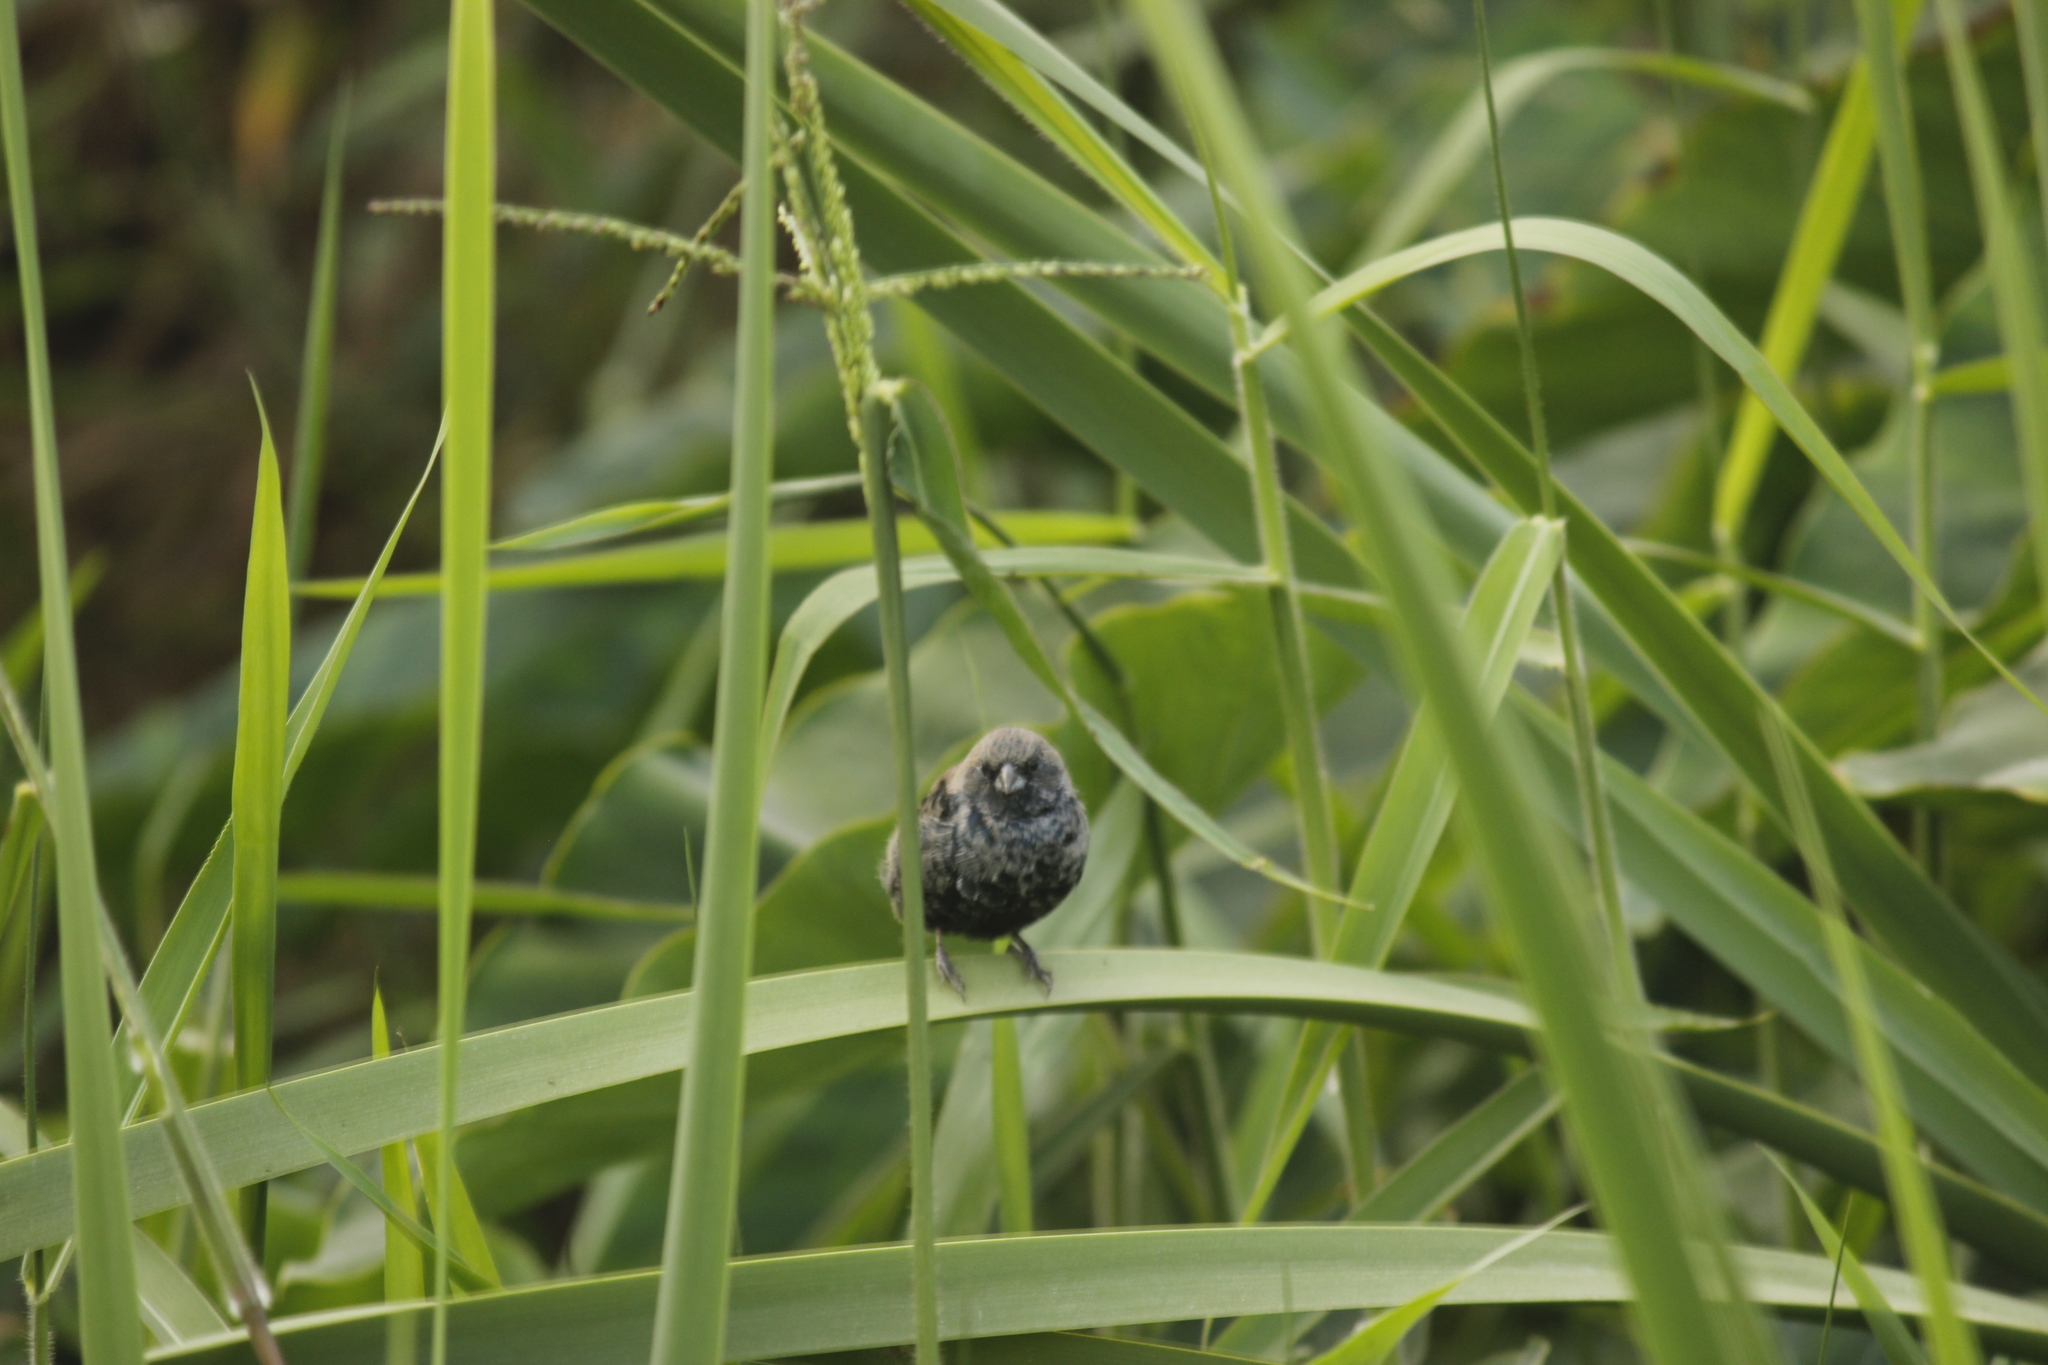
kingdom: Animalia
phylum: Chordata
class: Aves
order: Passeriformes
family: Thraupidae
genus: Volatinia
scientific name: Volatinia jacarina
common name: Blue-black grassquit
